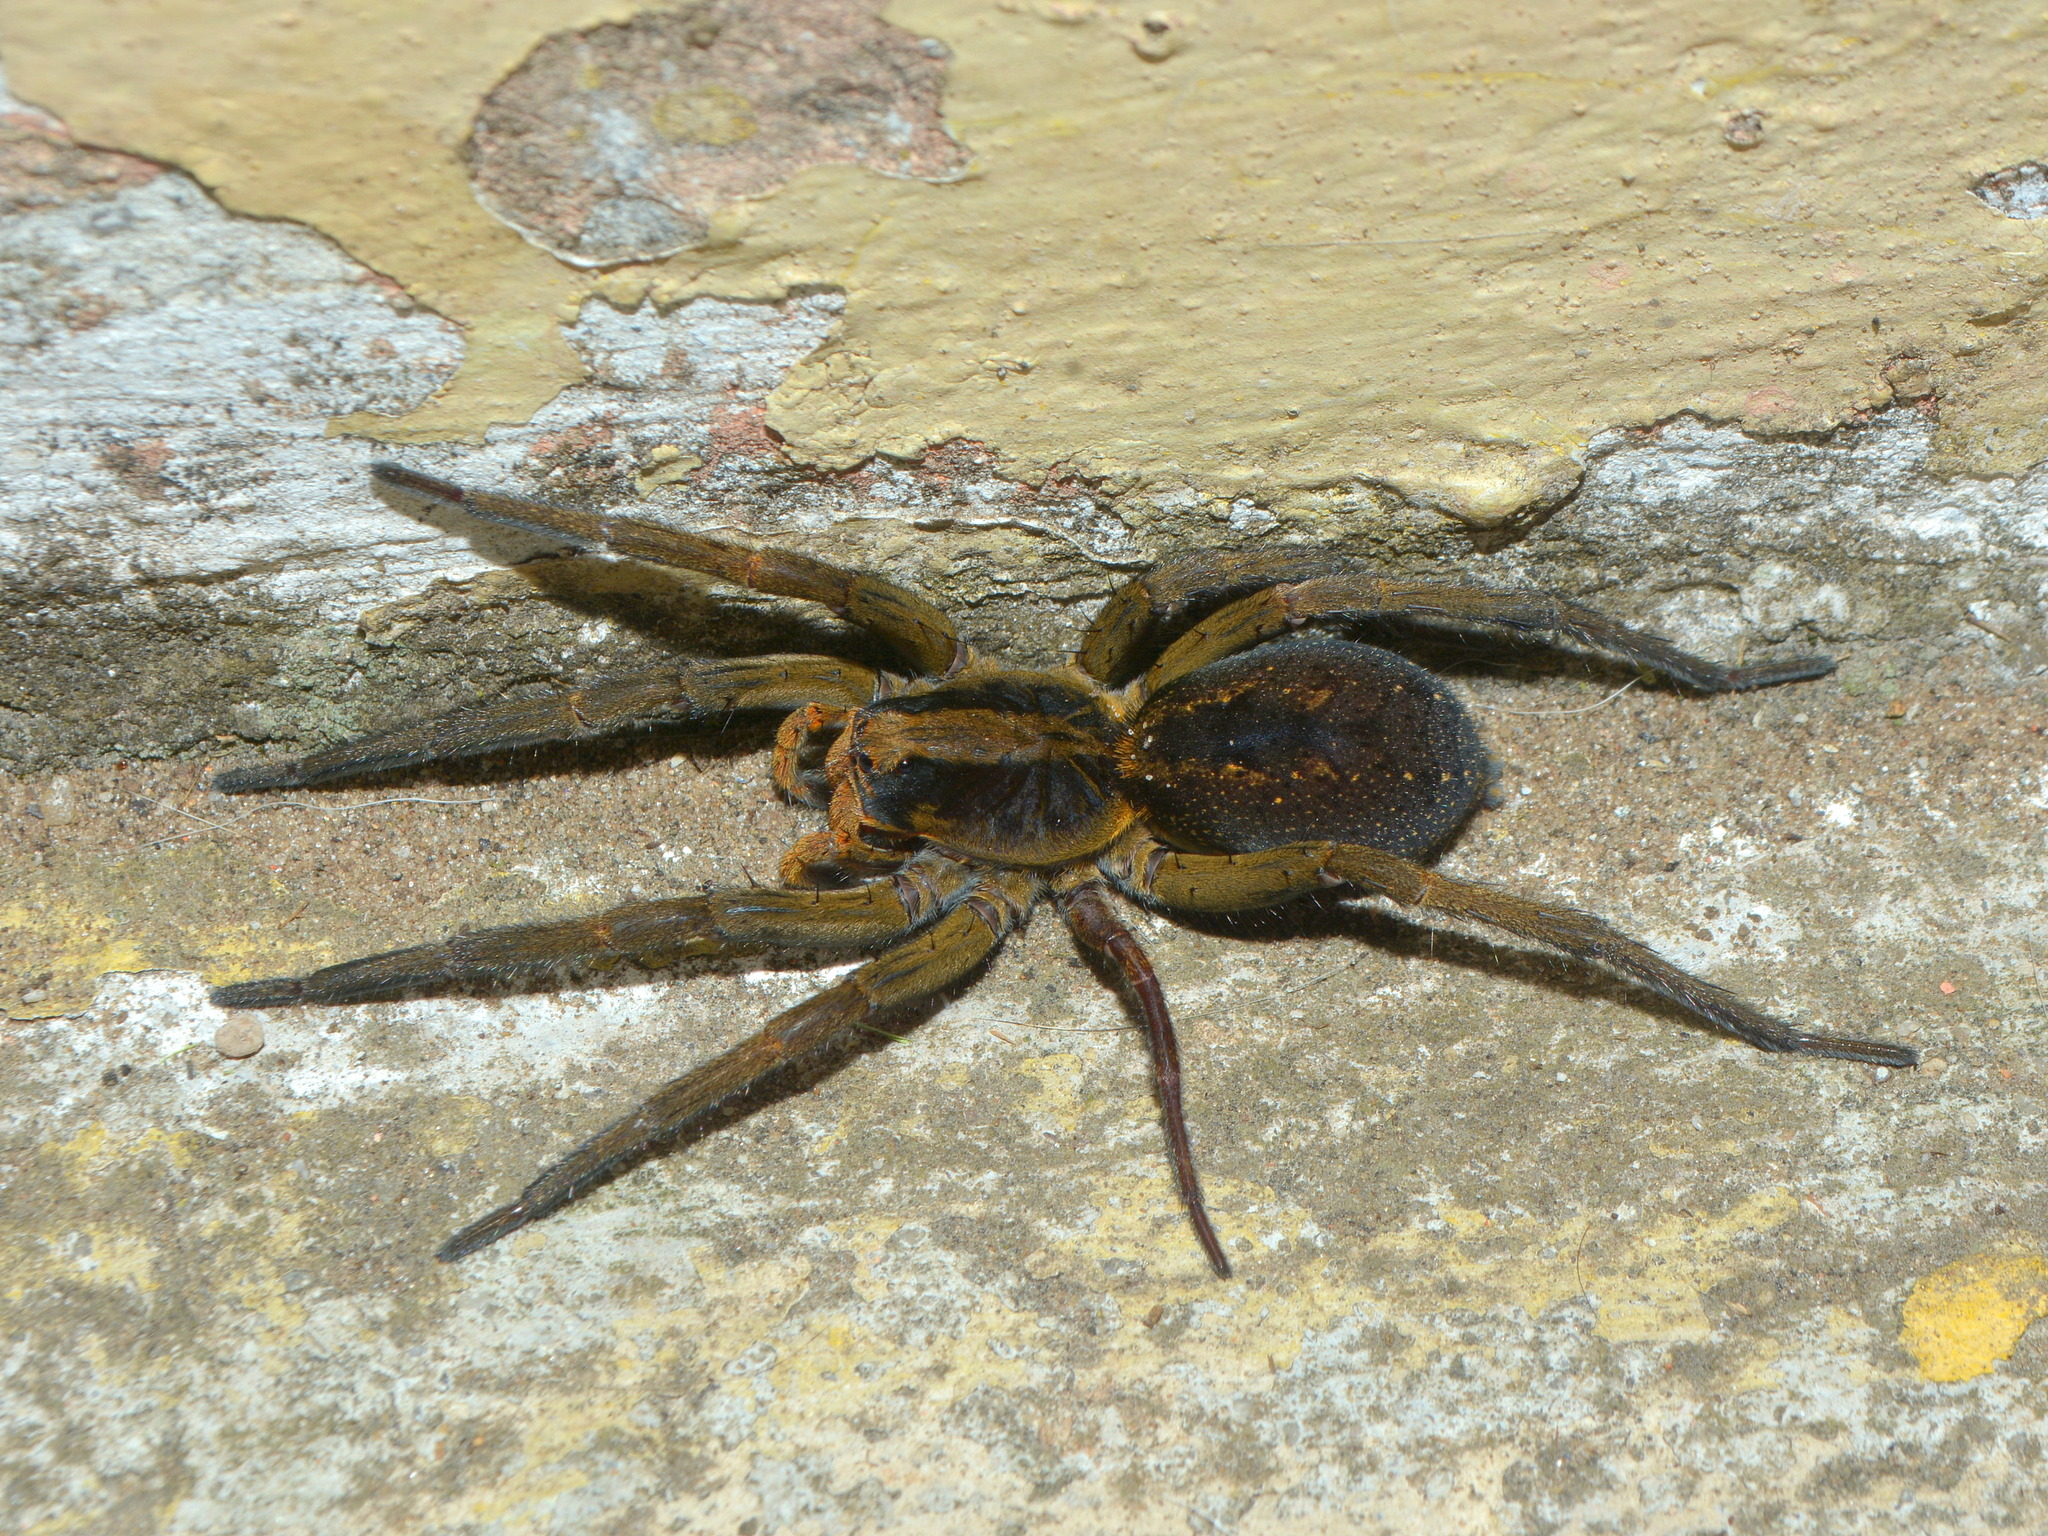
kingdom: Animalia
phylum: Arthropoda
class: Arachnida
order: Araneae
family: Lycosidae
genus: Lycosa
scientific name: Lycosa auroguttata
